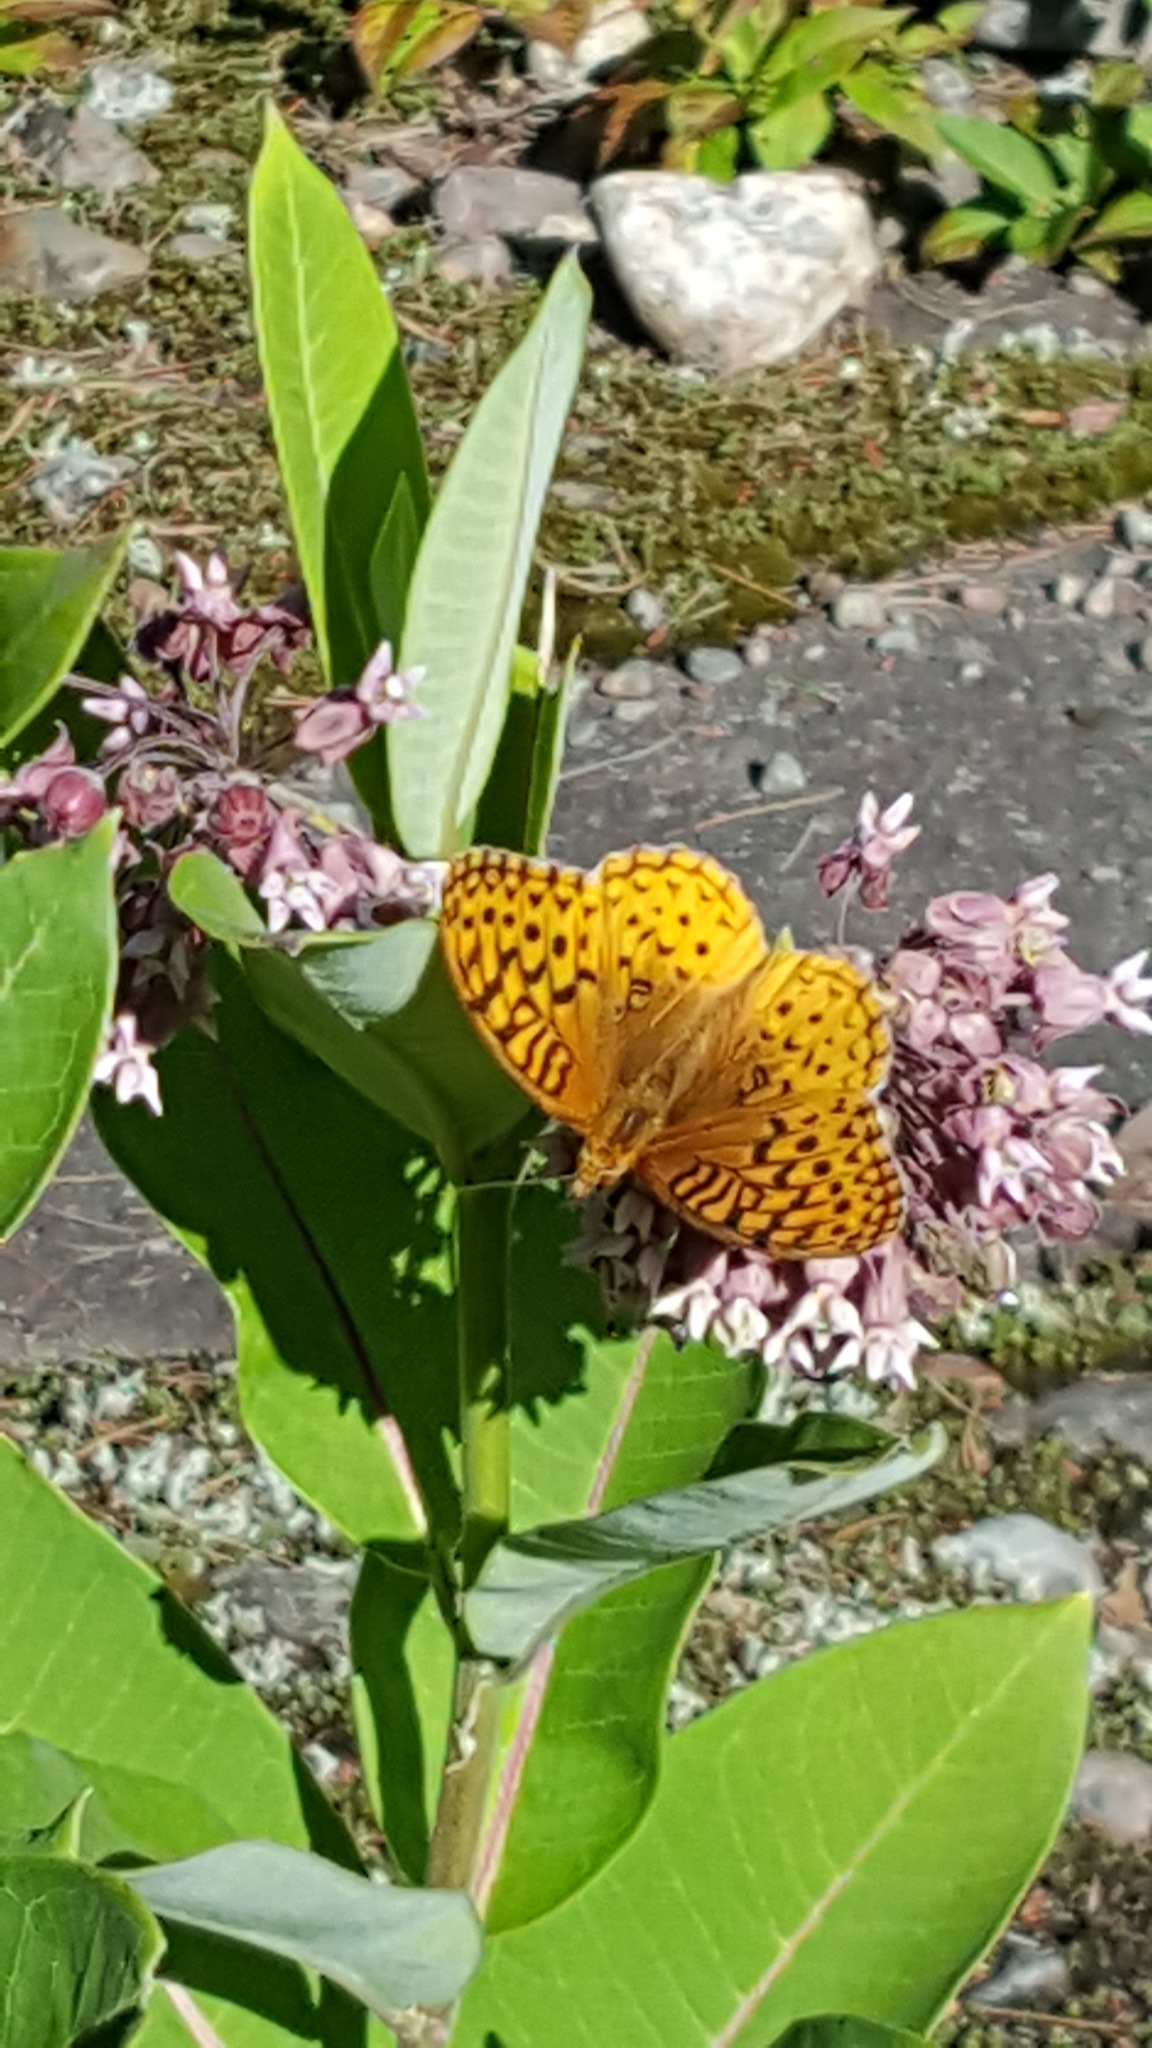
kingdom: Animalia
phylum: Arthropoda
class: Insecta
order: Lepidoptera
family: Nymphalidae
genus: Speyeria
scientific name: Speyeria cybele
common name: Great spangled fritillary
